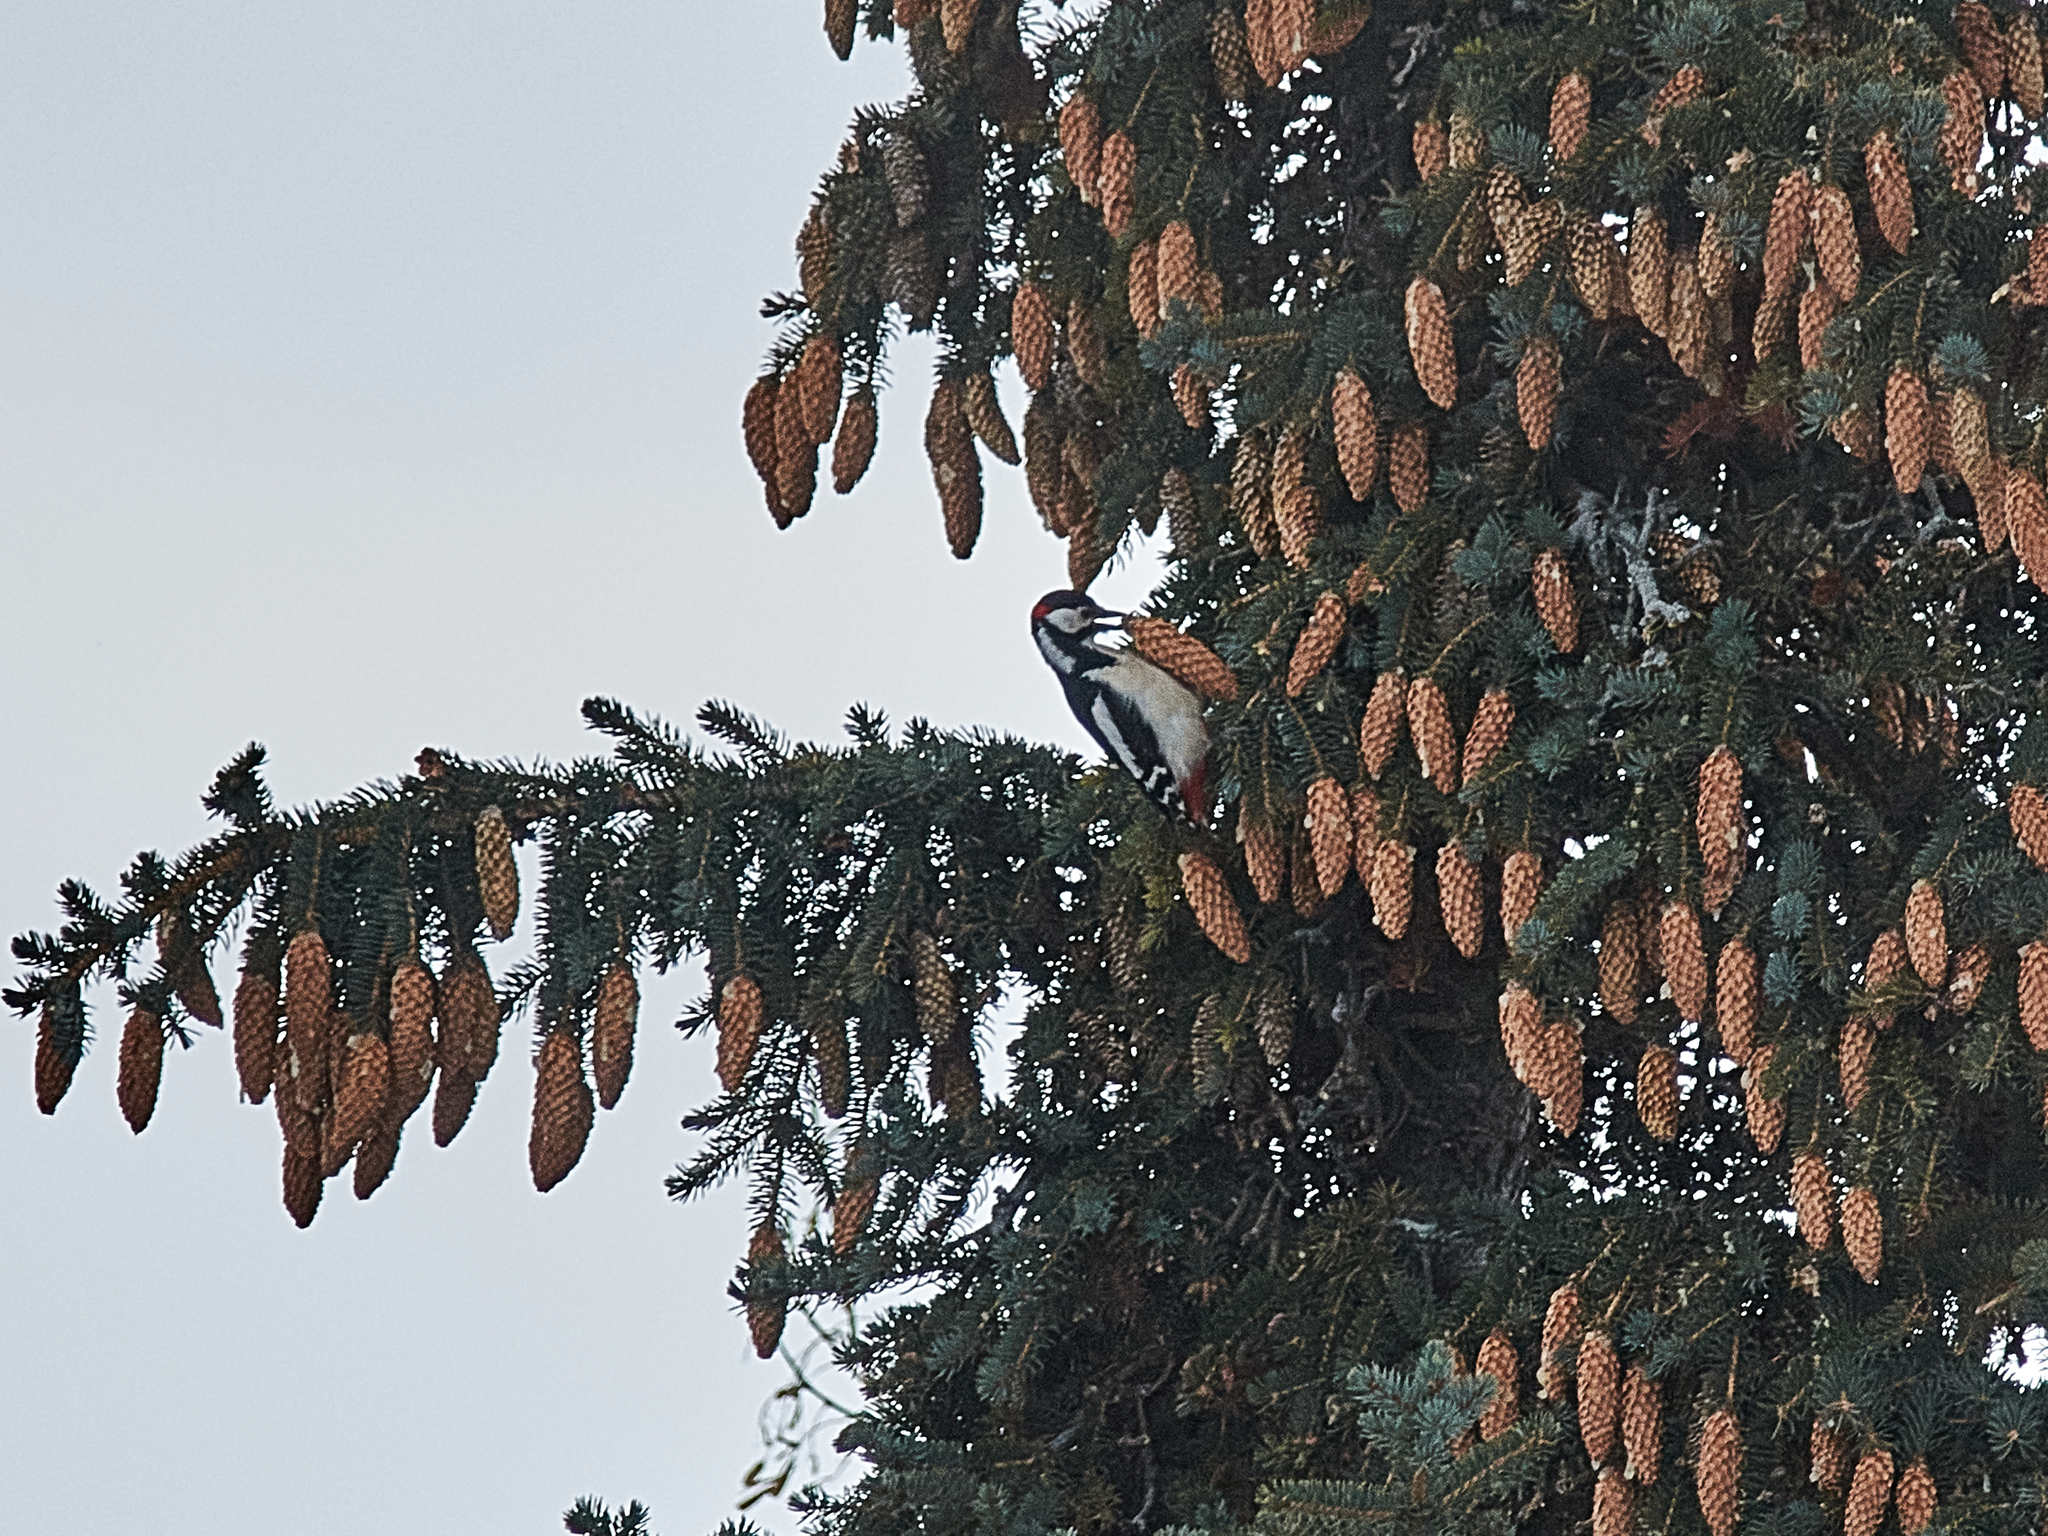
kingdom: Animalia
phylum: Chordata
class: Aves
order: Piciformes
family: Picidae
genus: Dendrocopos
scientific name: Dendrocopos major
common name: Great spotted woodpecker
